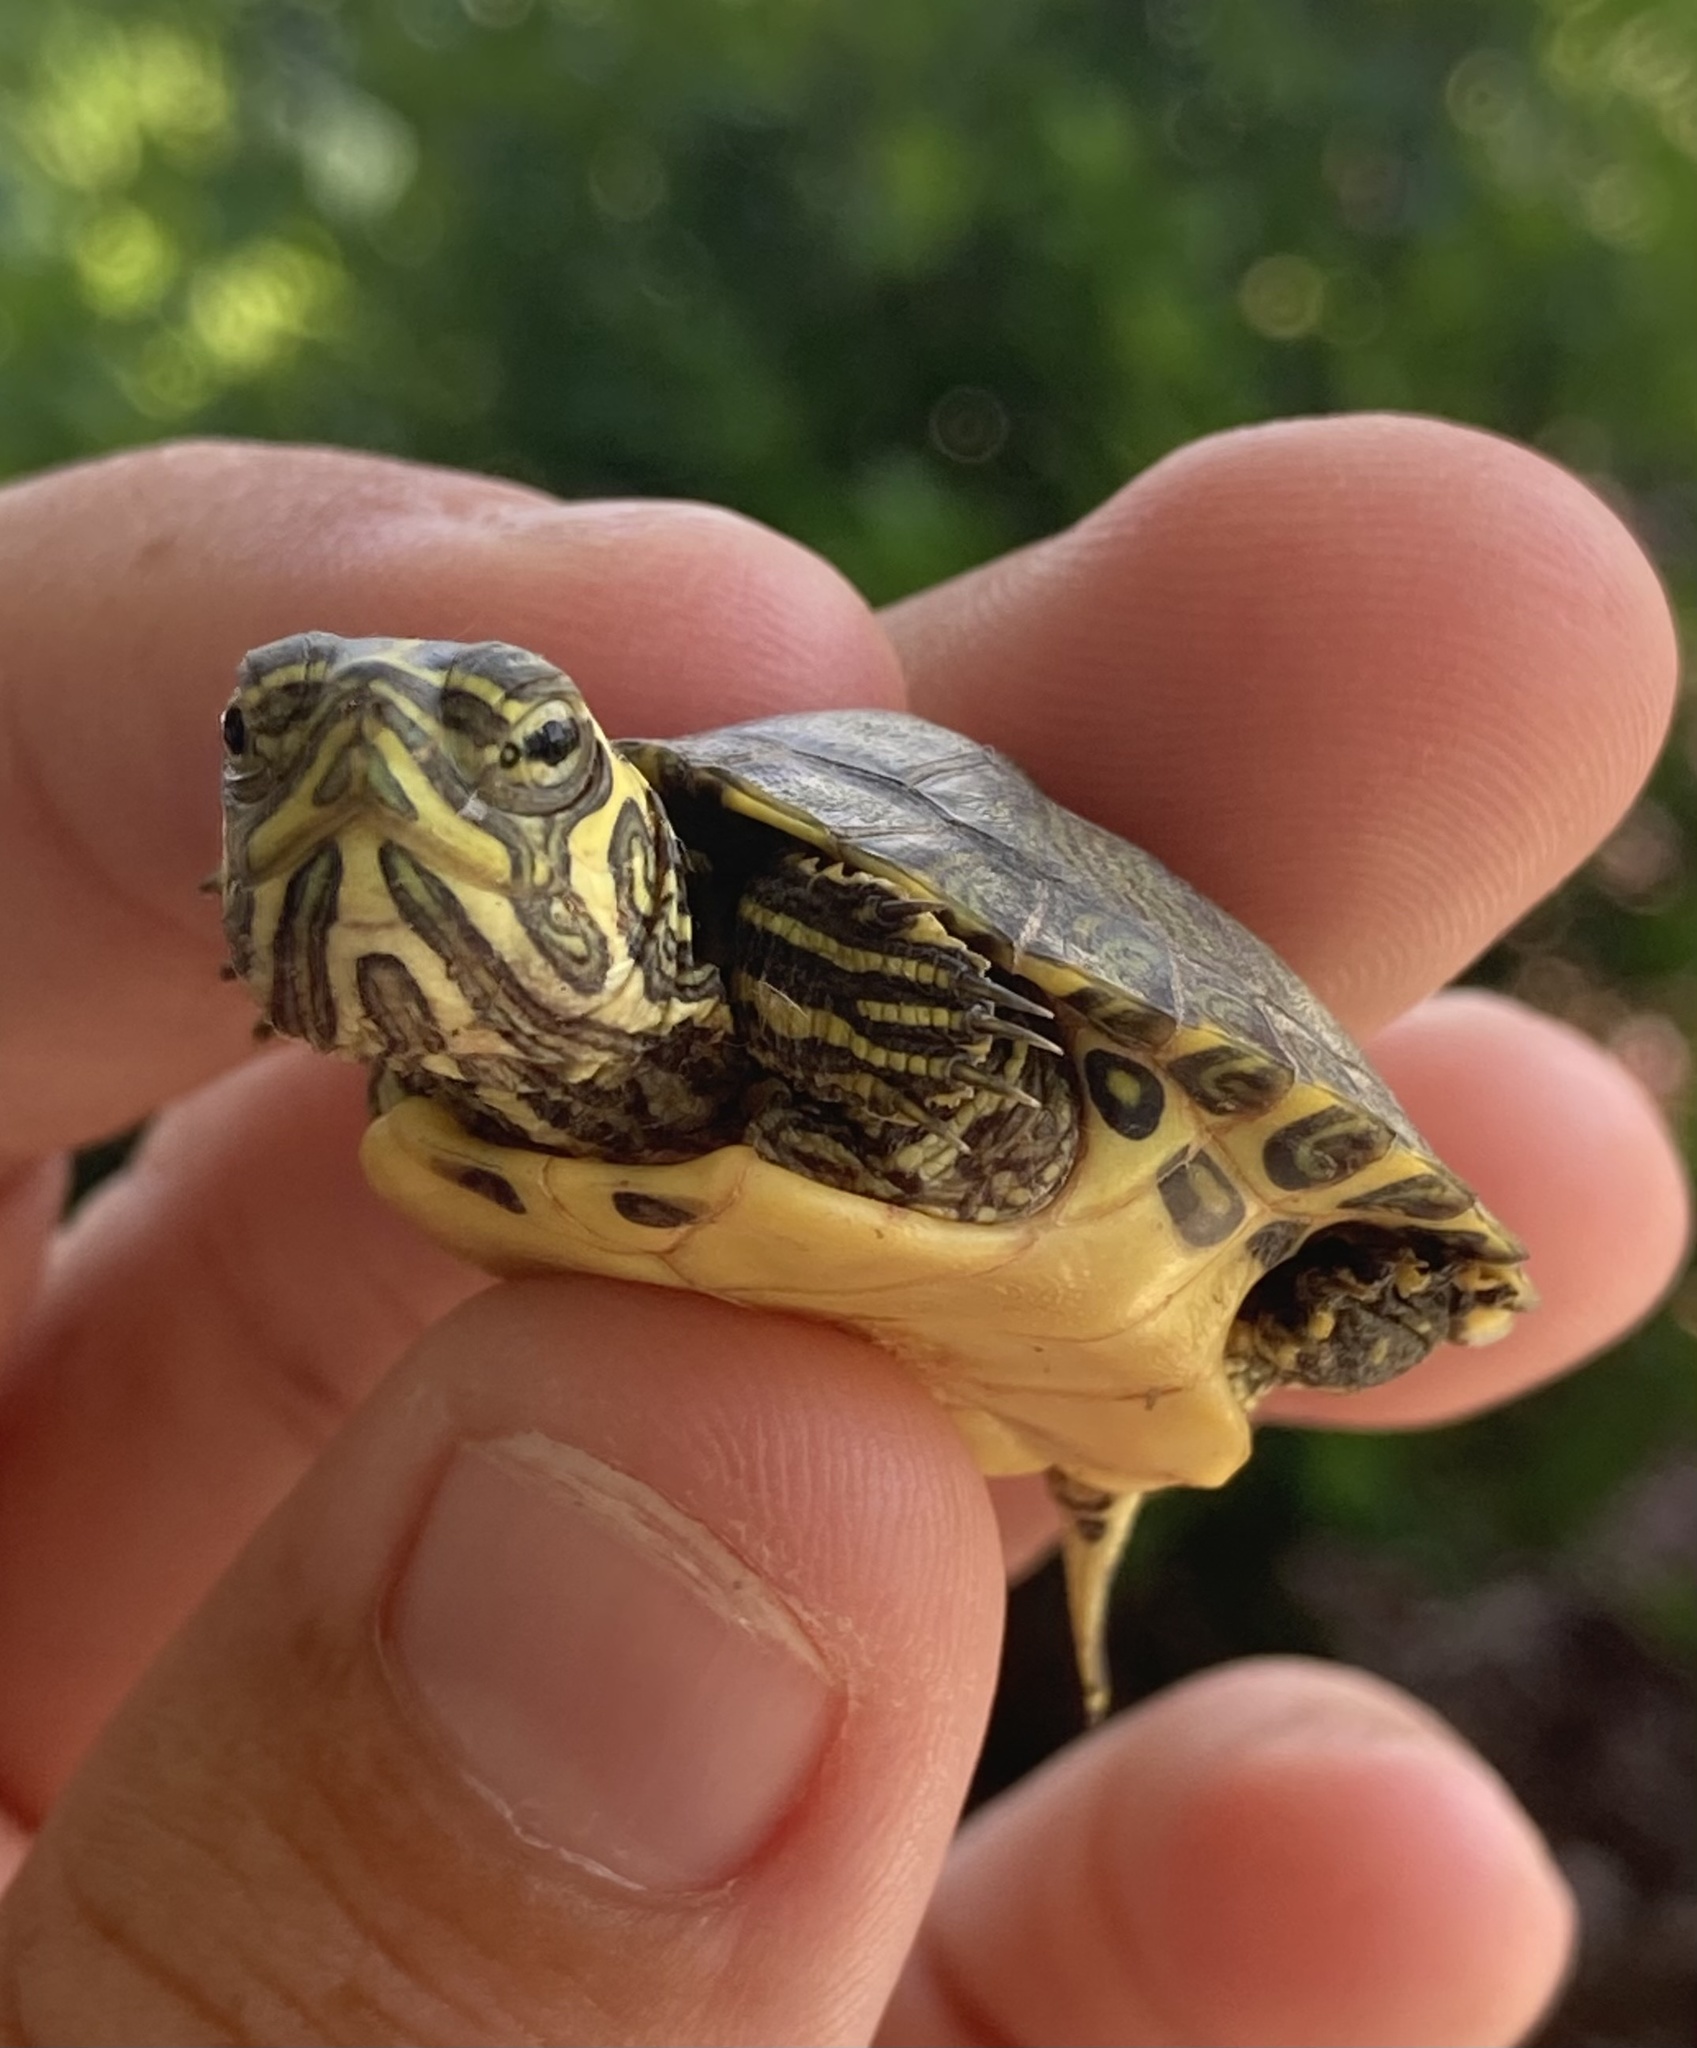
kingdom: Animalia
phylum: Chordata
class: Testudines
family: Emydidae
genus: Trachemys
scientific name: Trachemys scripta
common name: Slider
